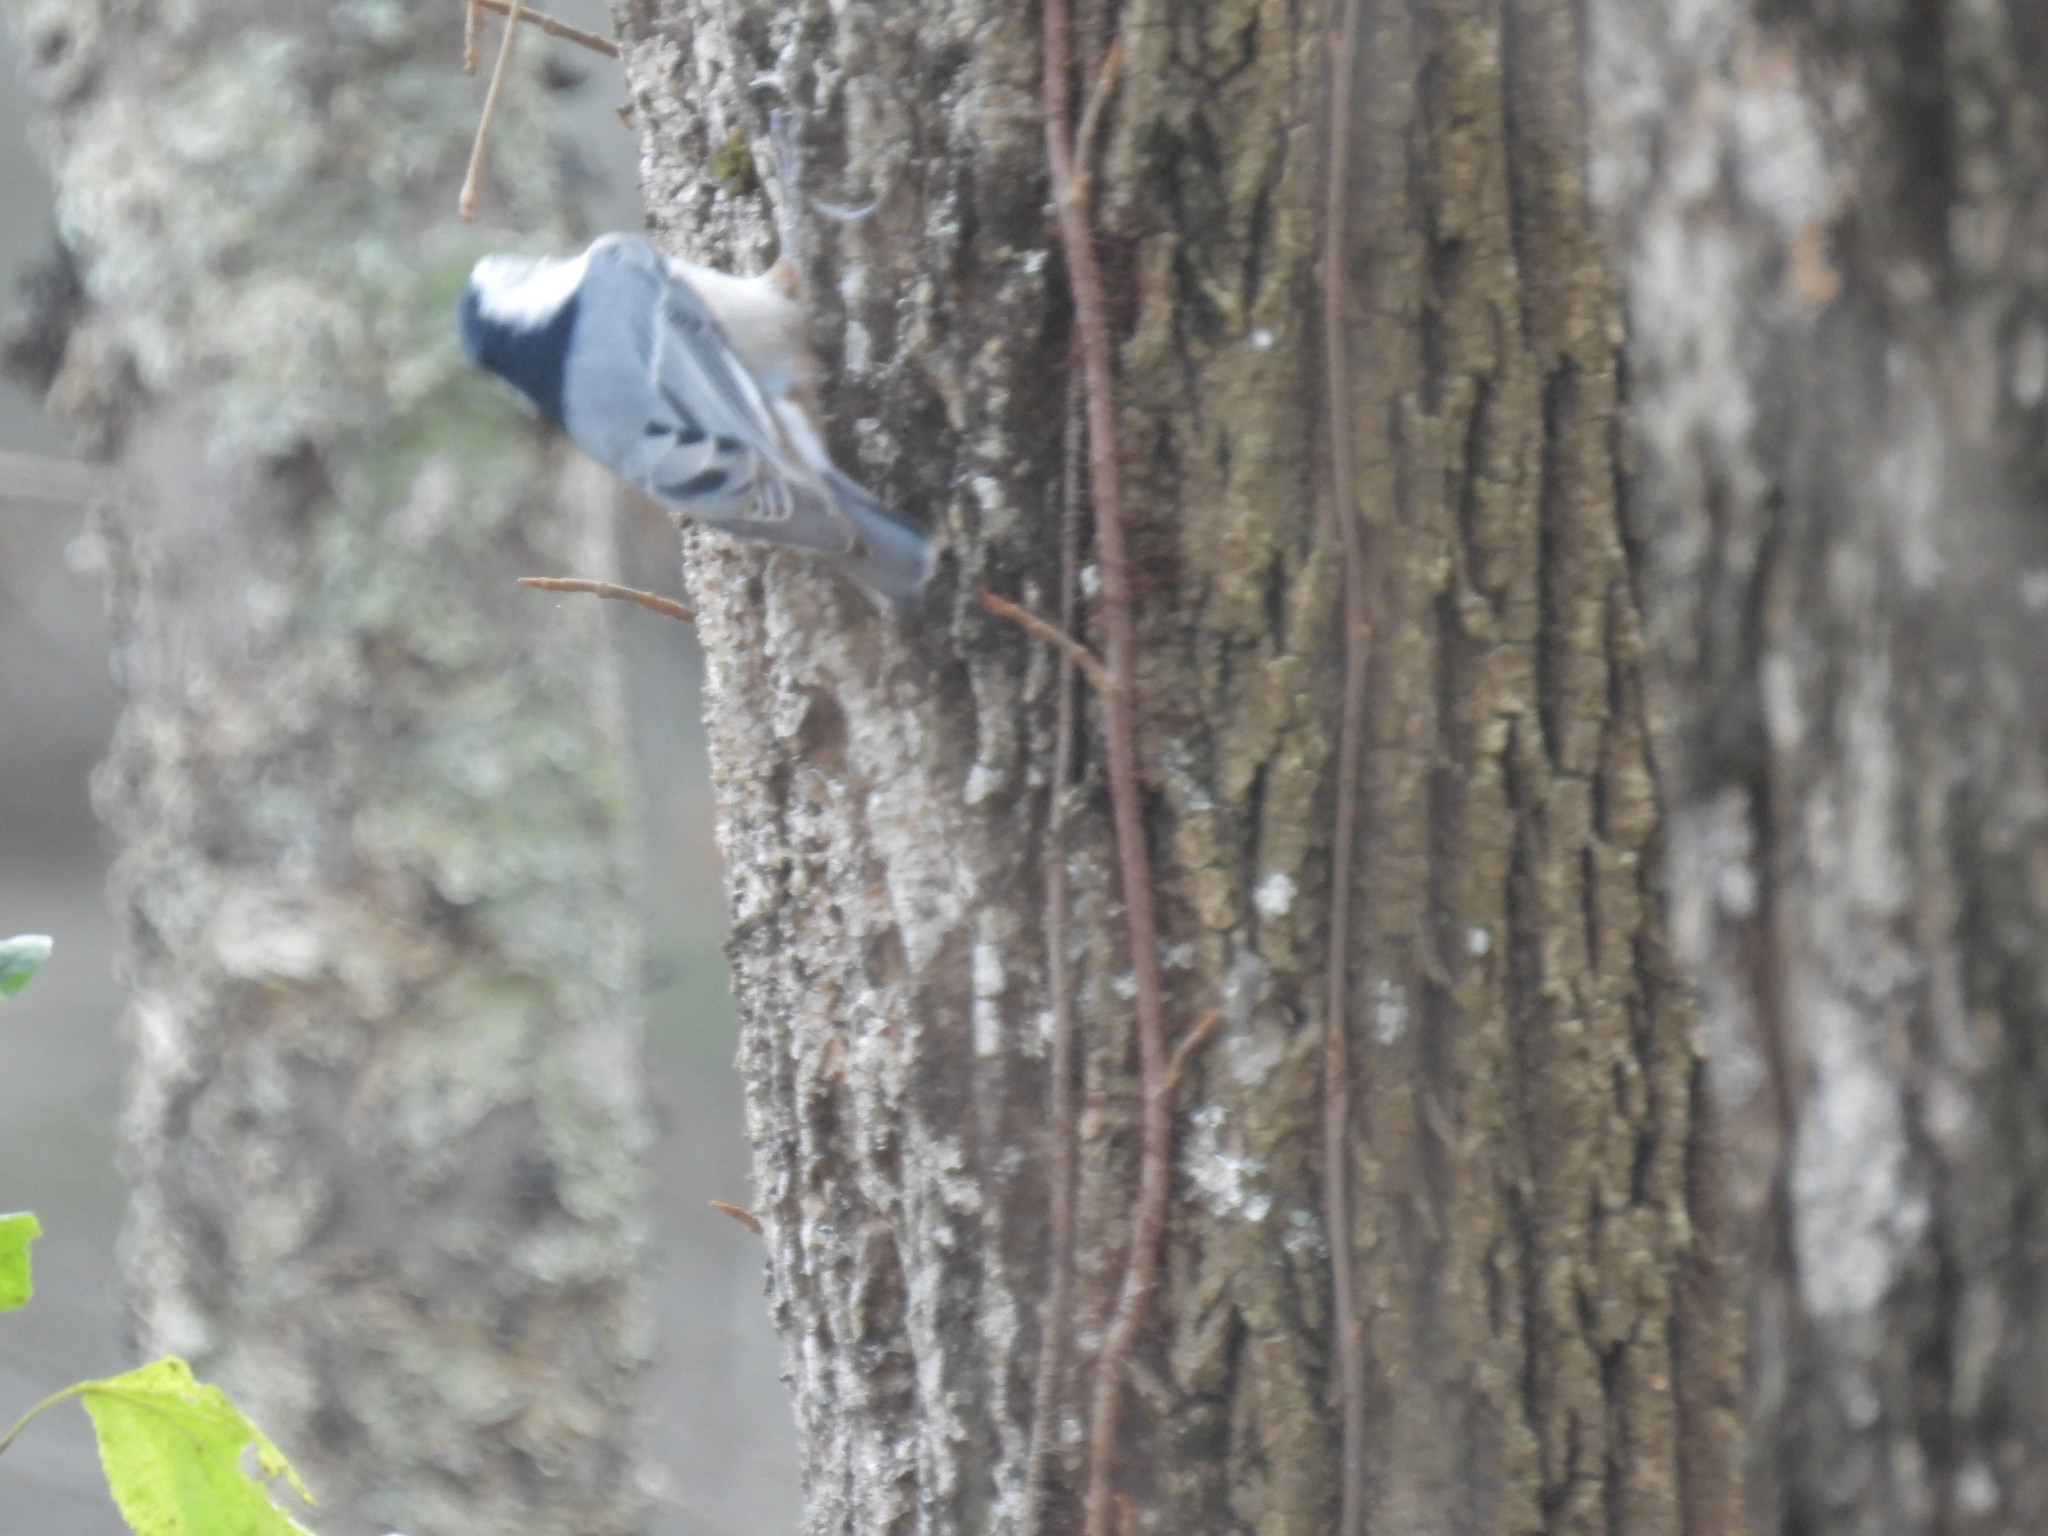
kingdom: Animalia
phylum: Chordata
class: Aves
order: Passeriformes
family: Sittidae
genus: Sitta
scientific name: Sitta carolinensis
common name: White-breasted nuthatch
